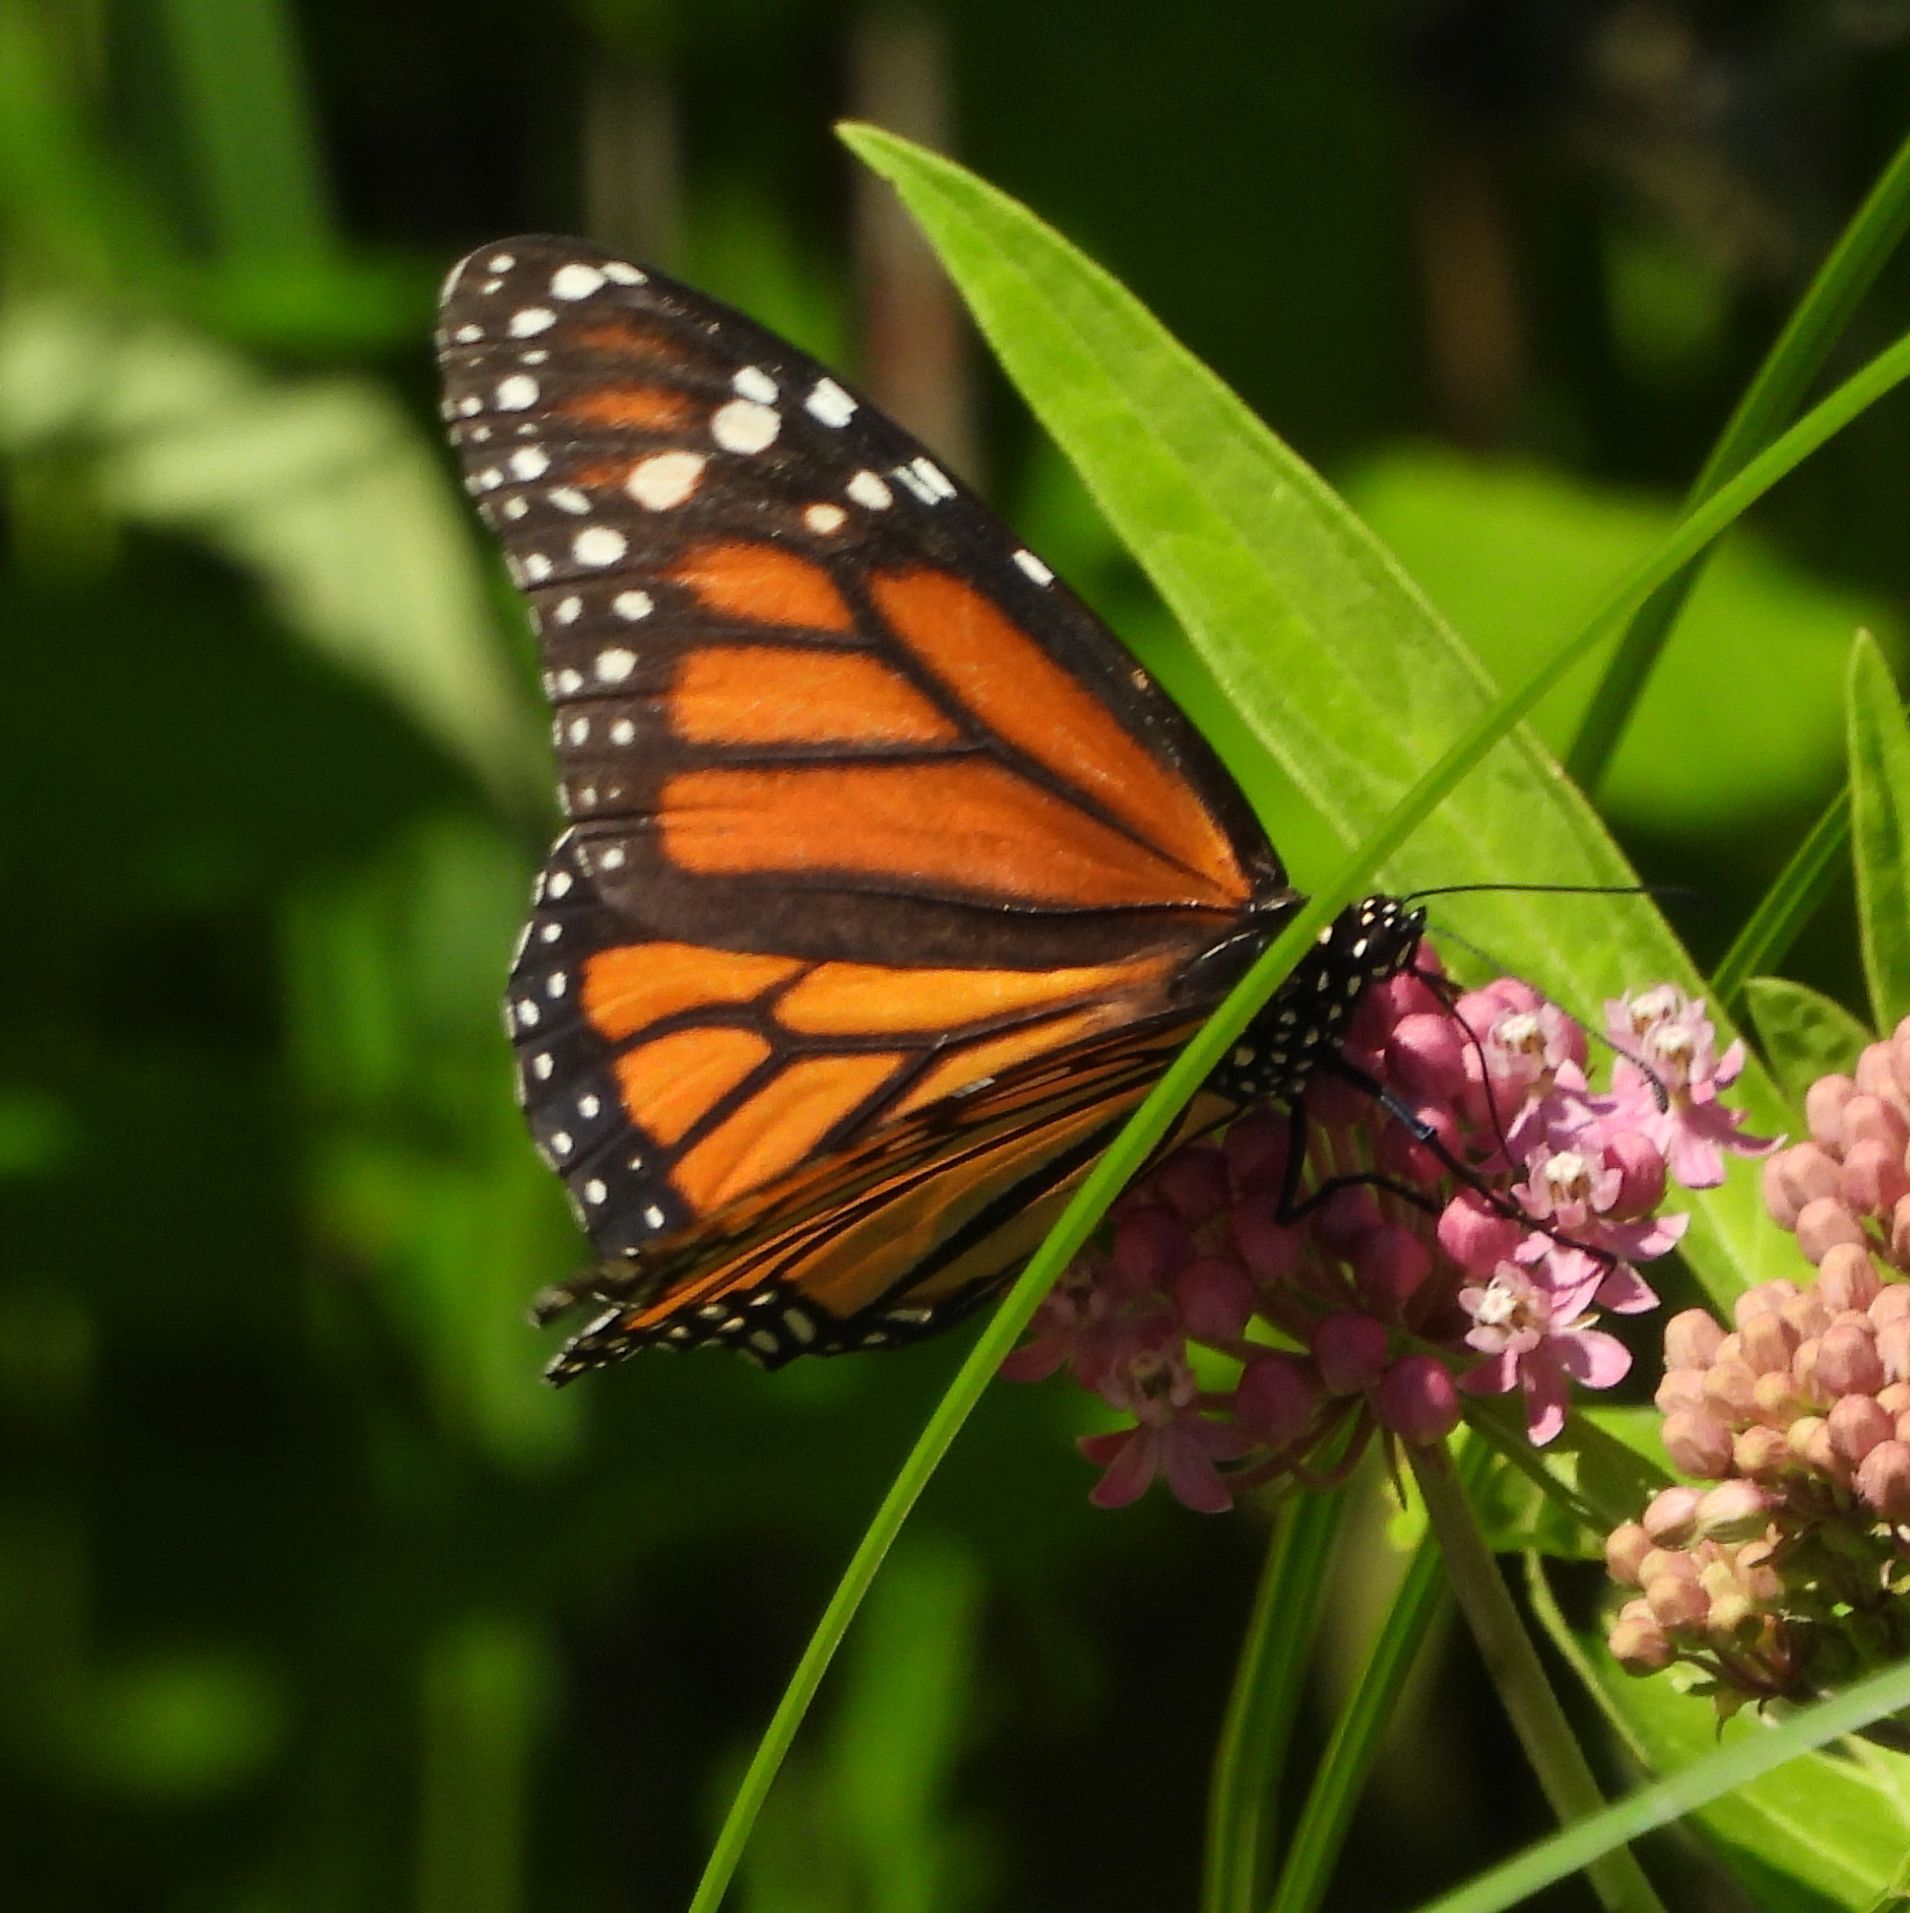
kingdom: Animalia
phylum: Arthropoda
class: Insecta
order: Lepidoptera
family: Nymphalidae
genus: Danaus
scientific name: Danaus plexippus
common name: Monarch
